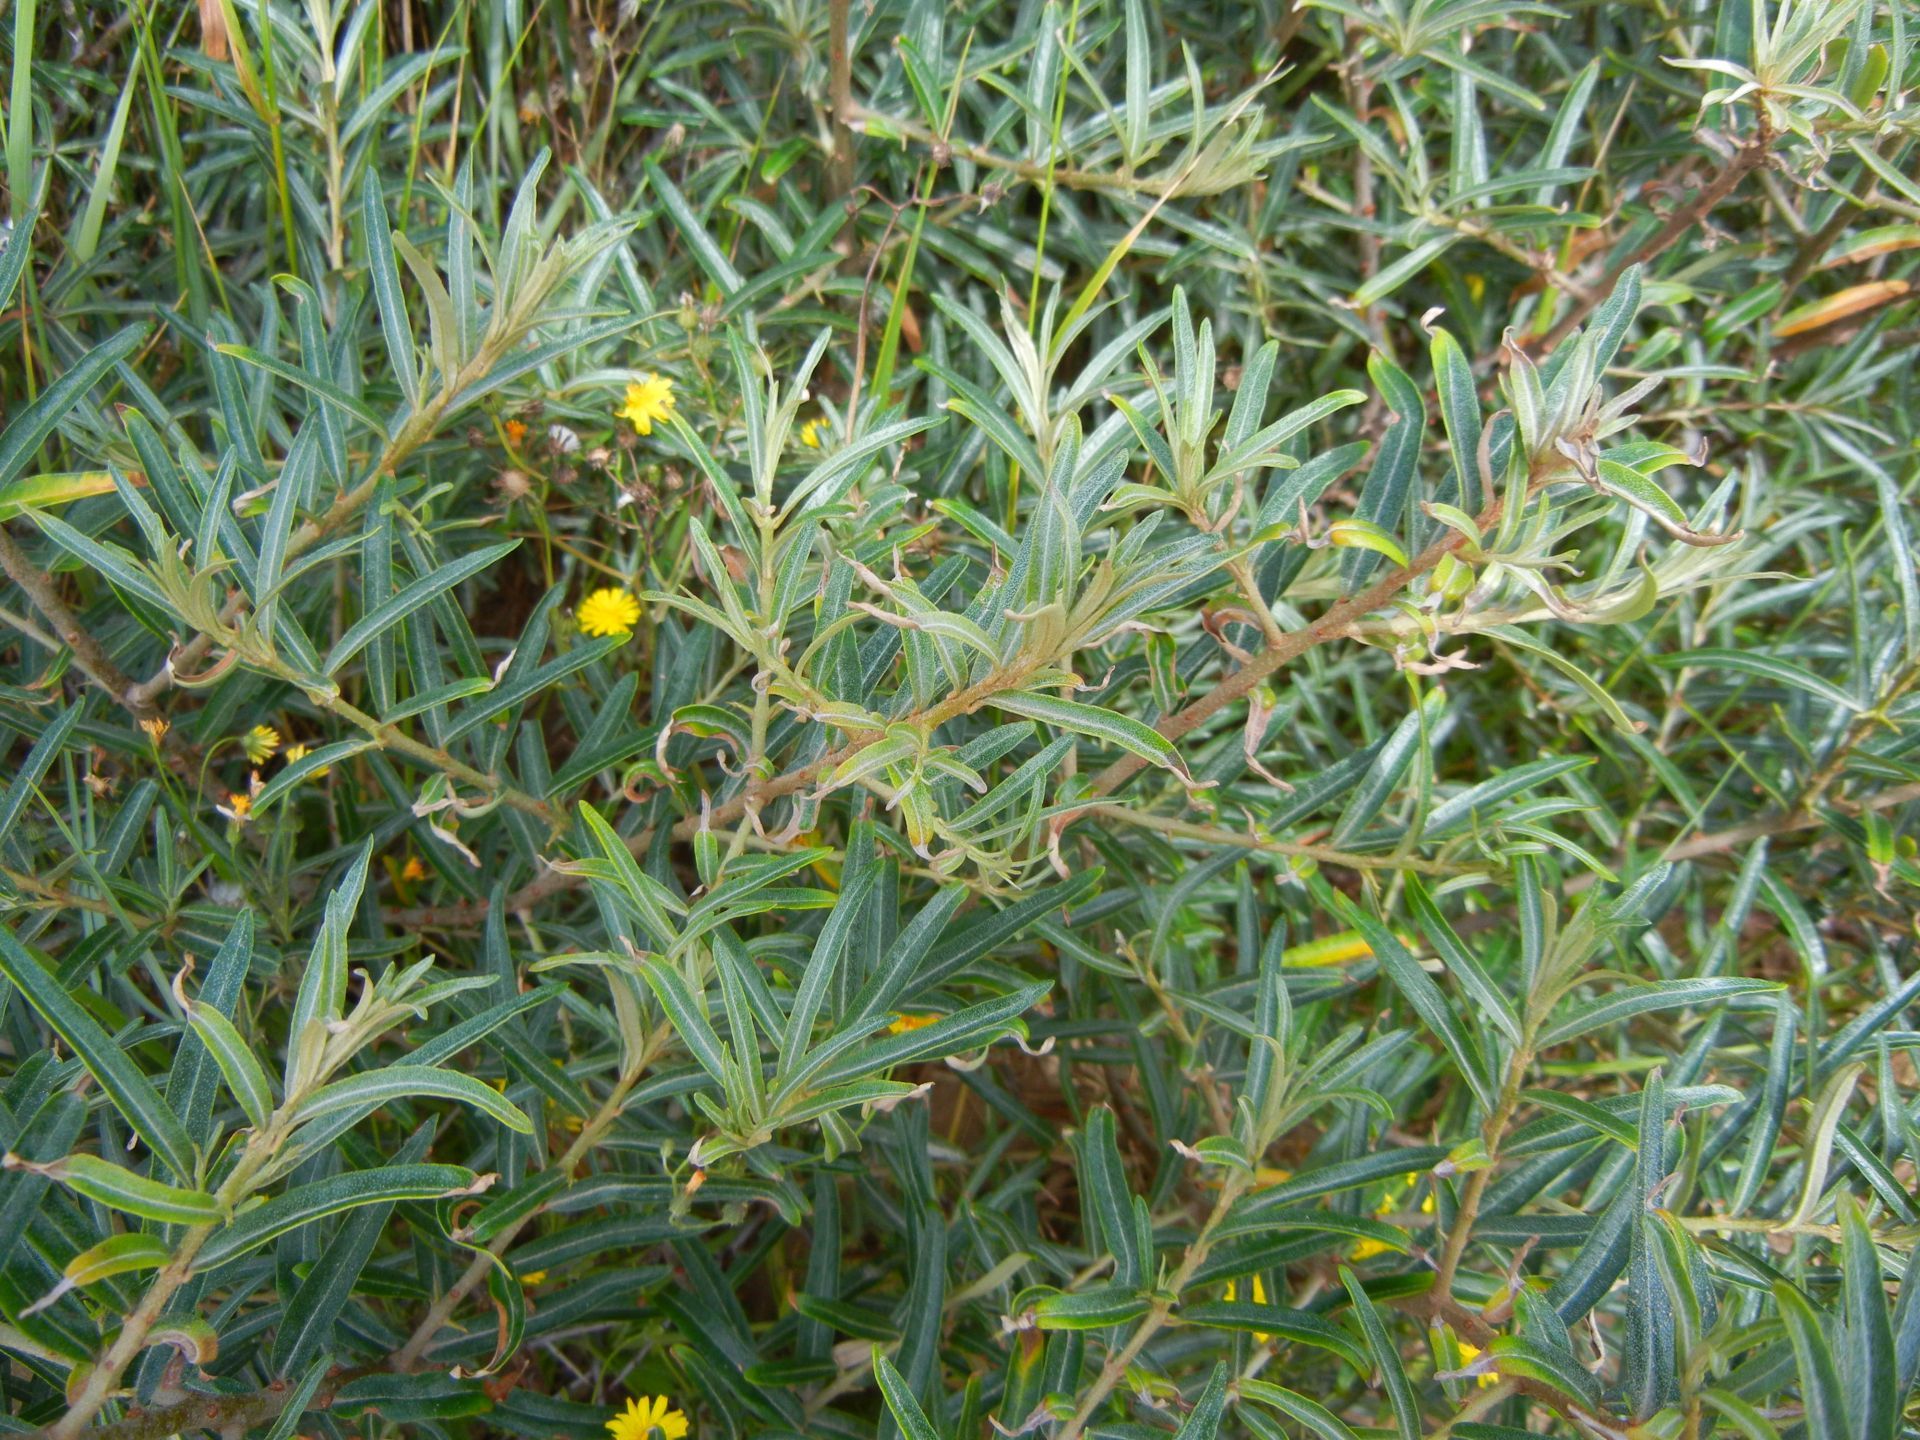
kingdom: Plantae
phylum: Tracheophyta
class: Magnoliopsida
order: Rosales
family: Elaeagnaceae
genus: Hippophae
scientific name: Hippophae rhamnoides
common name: Sea-buckthorn
